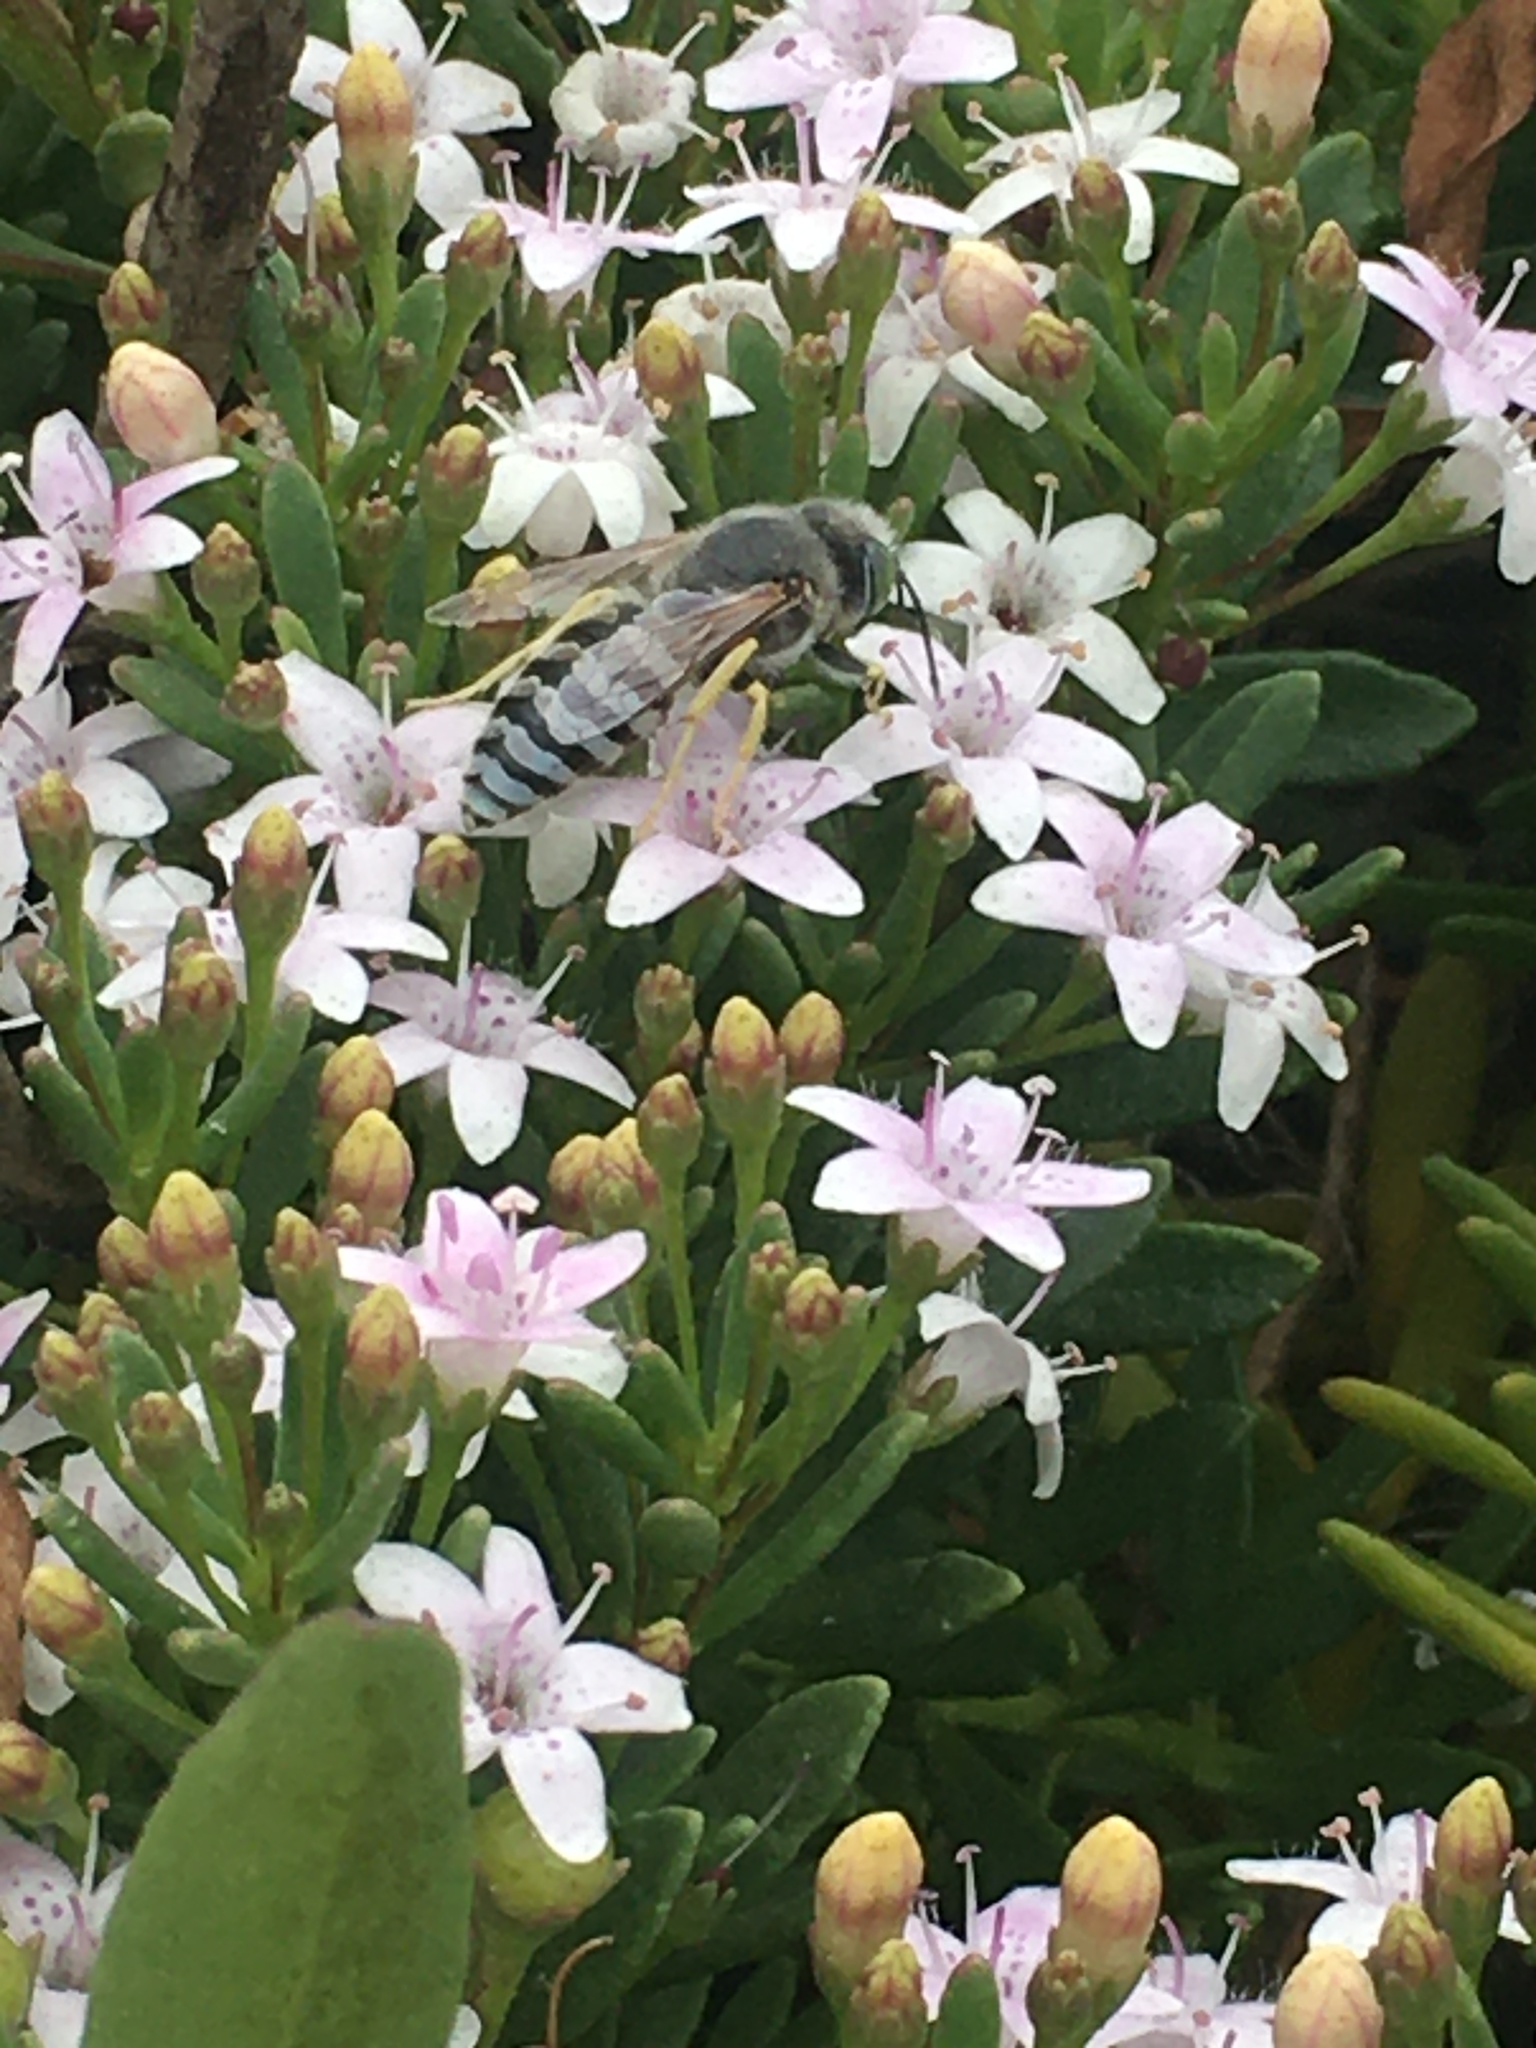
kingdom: Animalia
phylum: Arthropoda
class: Insecta
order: Hymenoptera
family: Crabronidae
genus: Bembix
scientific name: Bembix americana
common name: American sand wasp
